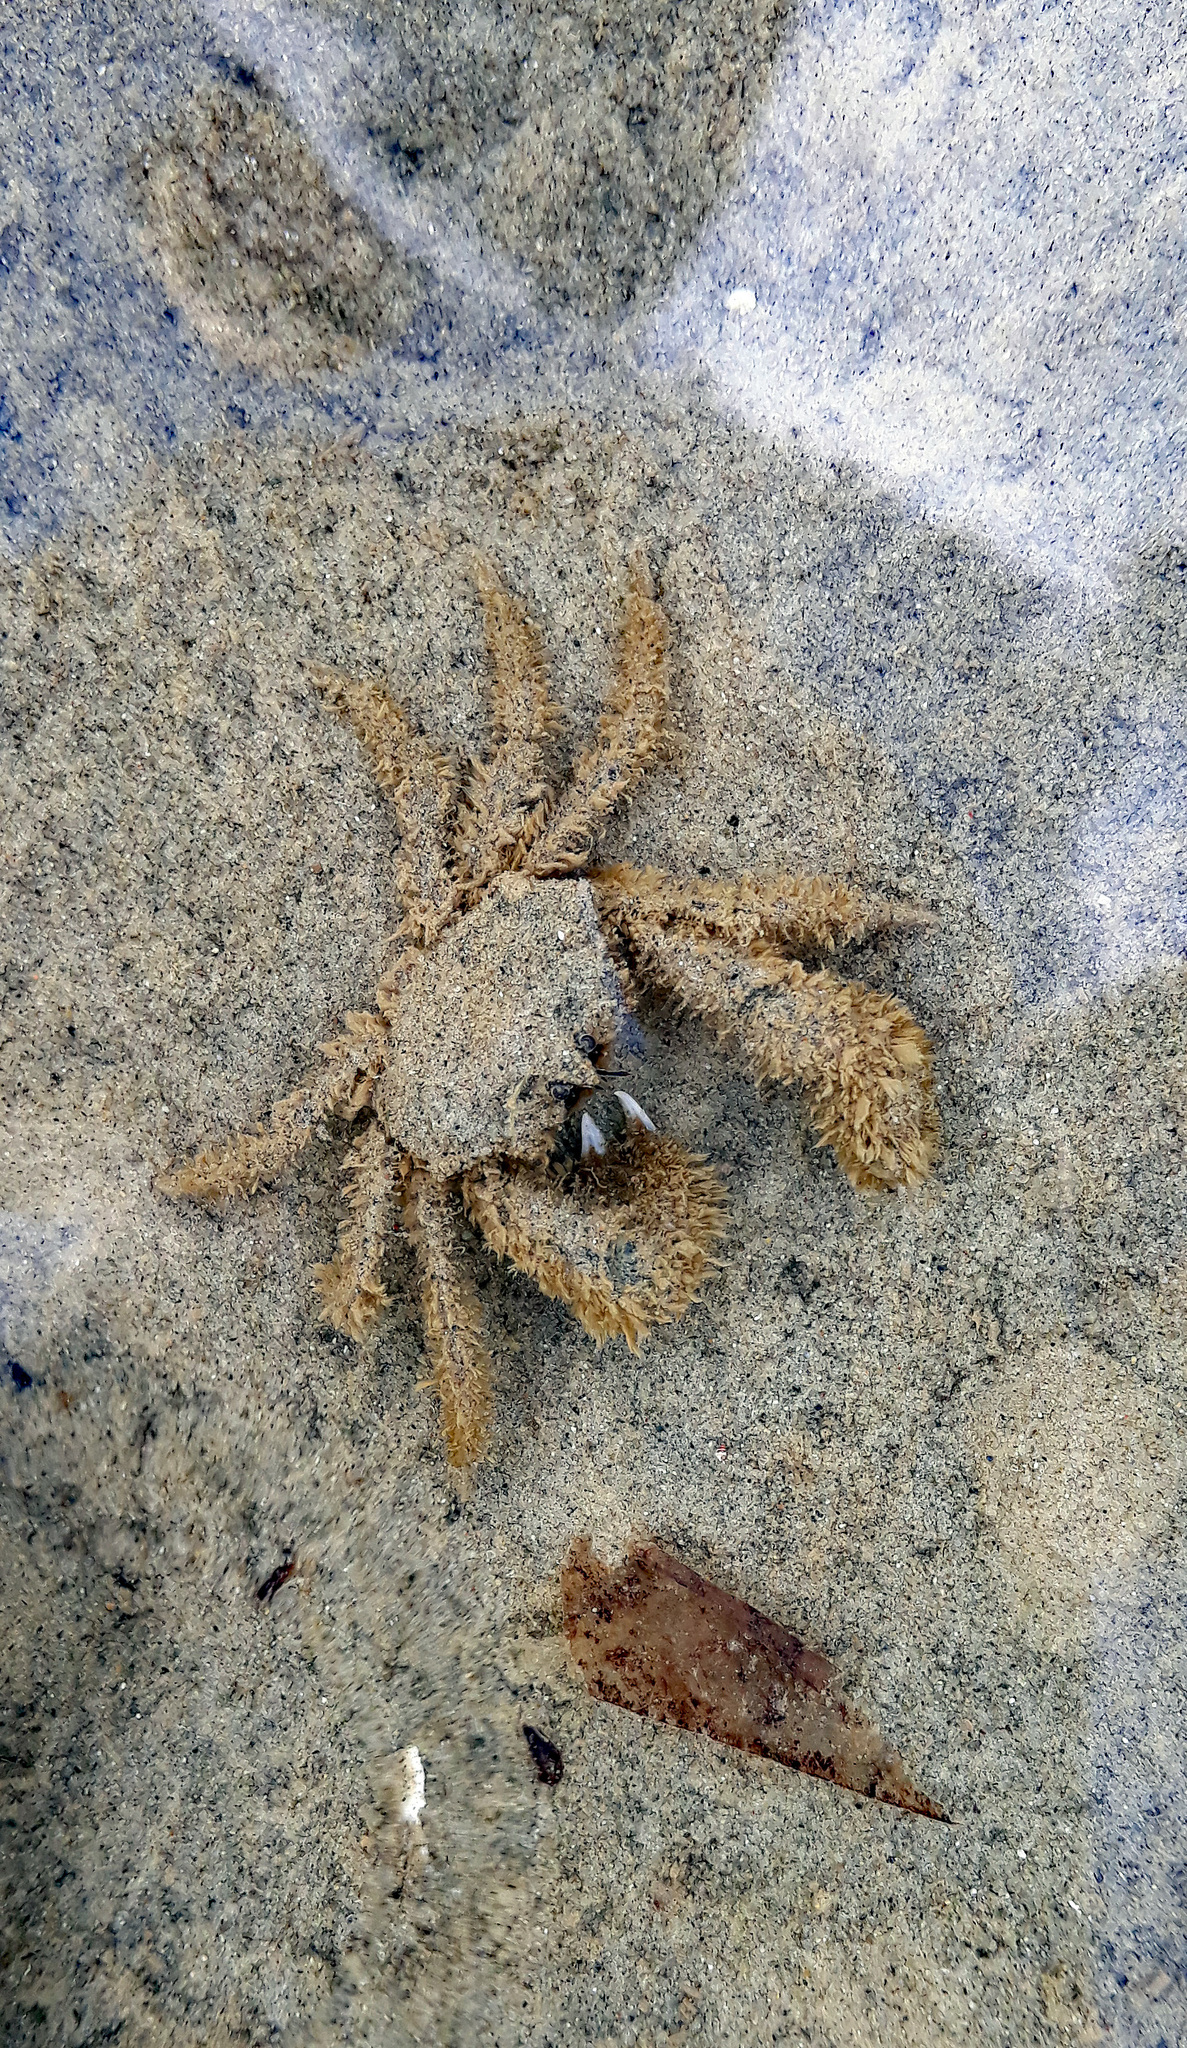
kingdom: Animalia
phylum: Arthropoda
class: Malacostraca
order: Decapoda
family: Hymenosomatidae
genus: Halicarcinus
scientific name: Halicarcinus whitei
